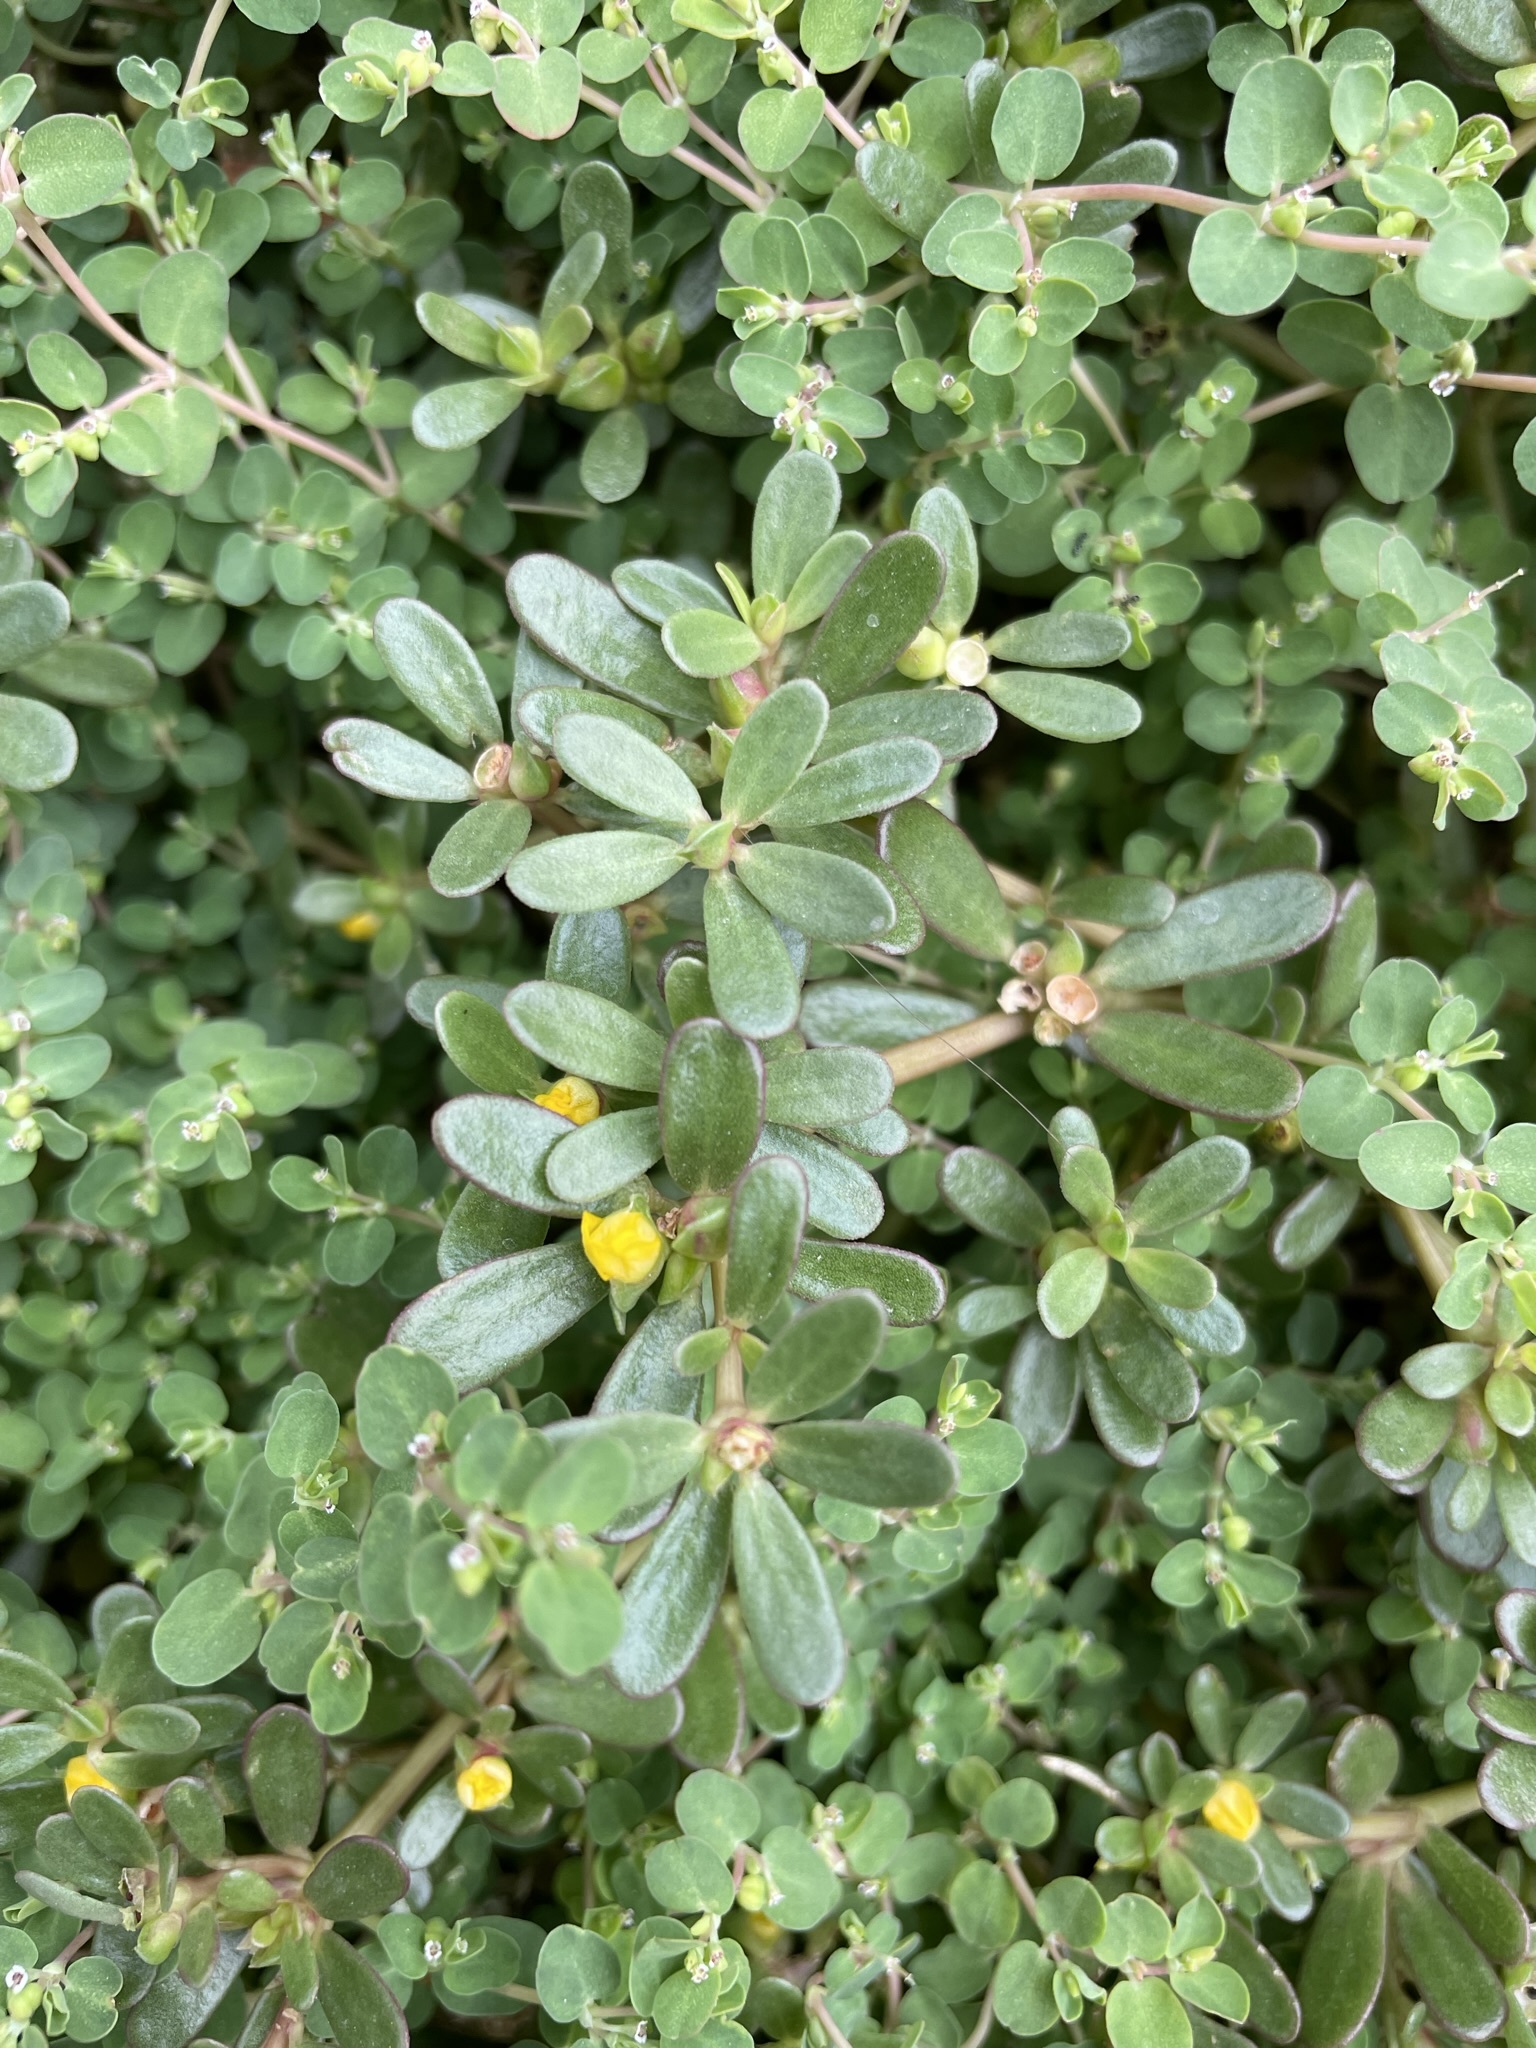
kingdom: Plantae
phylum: Tracheophyta
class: Magnoliopsida
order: Caryophyllales
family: Portulacaceae
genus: Portulaca
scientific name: Portulaca oleracea
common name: Common purslane
